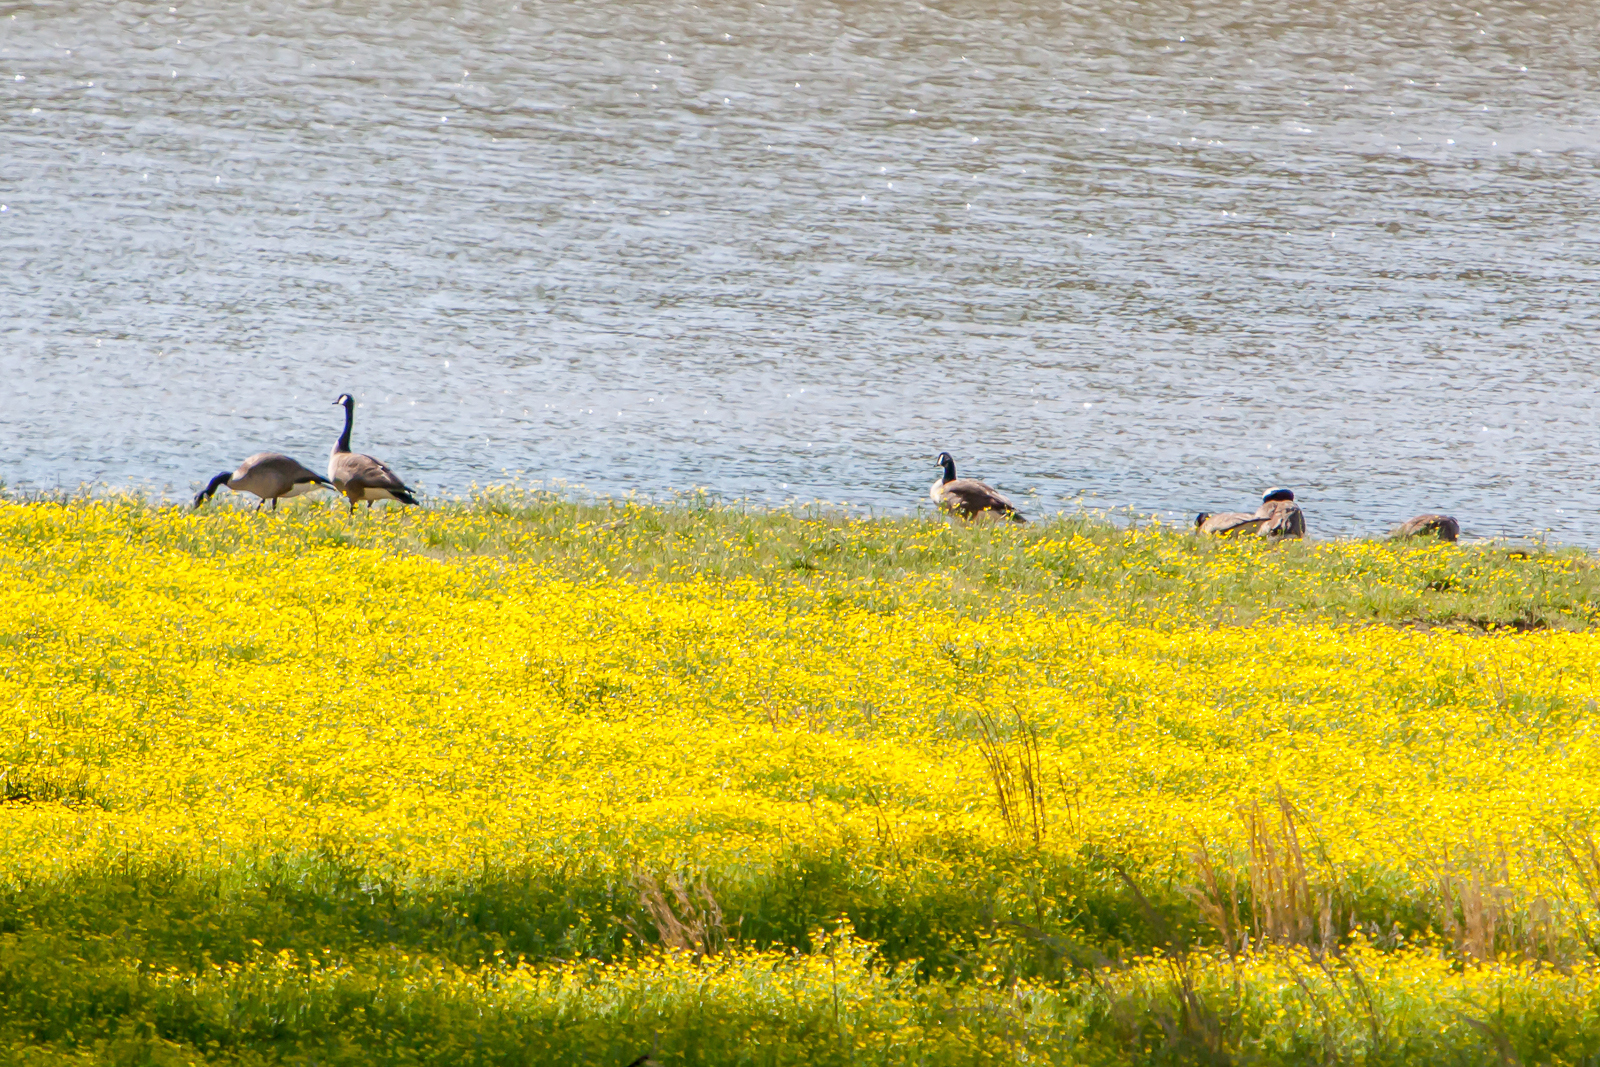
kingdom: Animalia
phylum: Chordata
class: Aves
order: Anseriformes
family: Anatidae
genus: Branta
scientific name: Branta canadensis
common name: Canada goose
